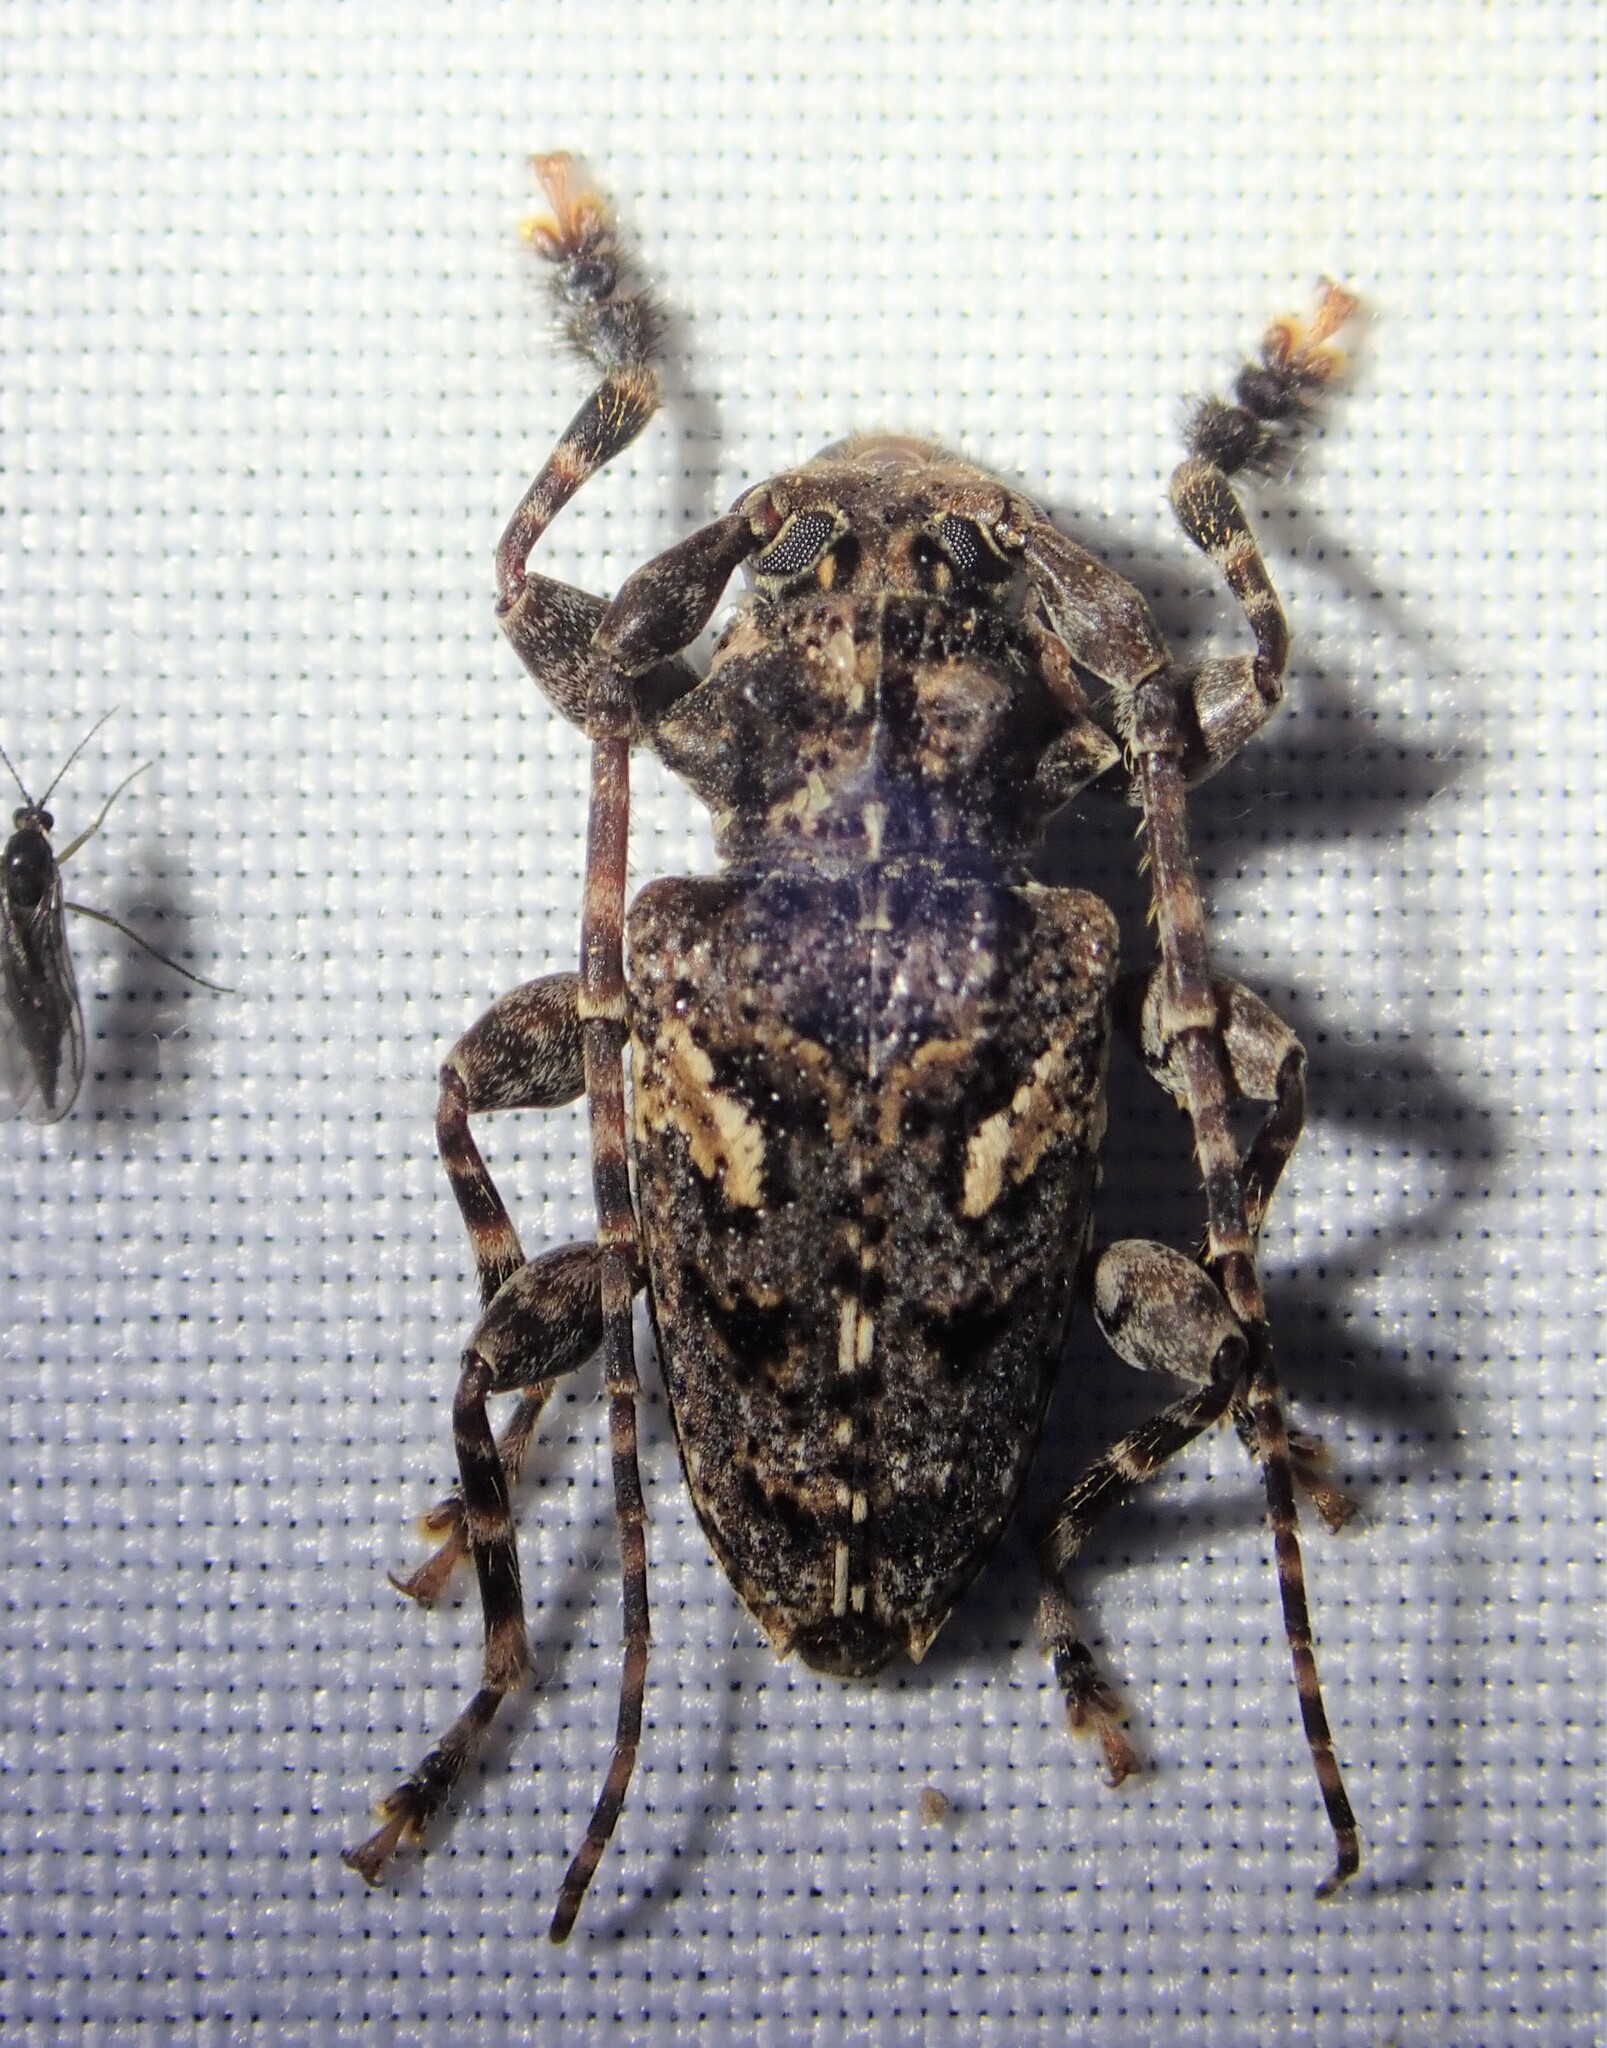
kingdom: Animalia
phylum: Arthropoda
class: Insecta
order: Coleoptera
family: Cerambycidae
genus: Psapharochrus
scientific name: Psapharochrus circumflexus
